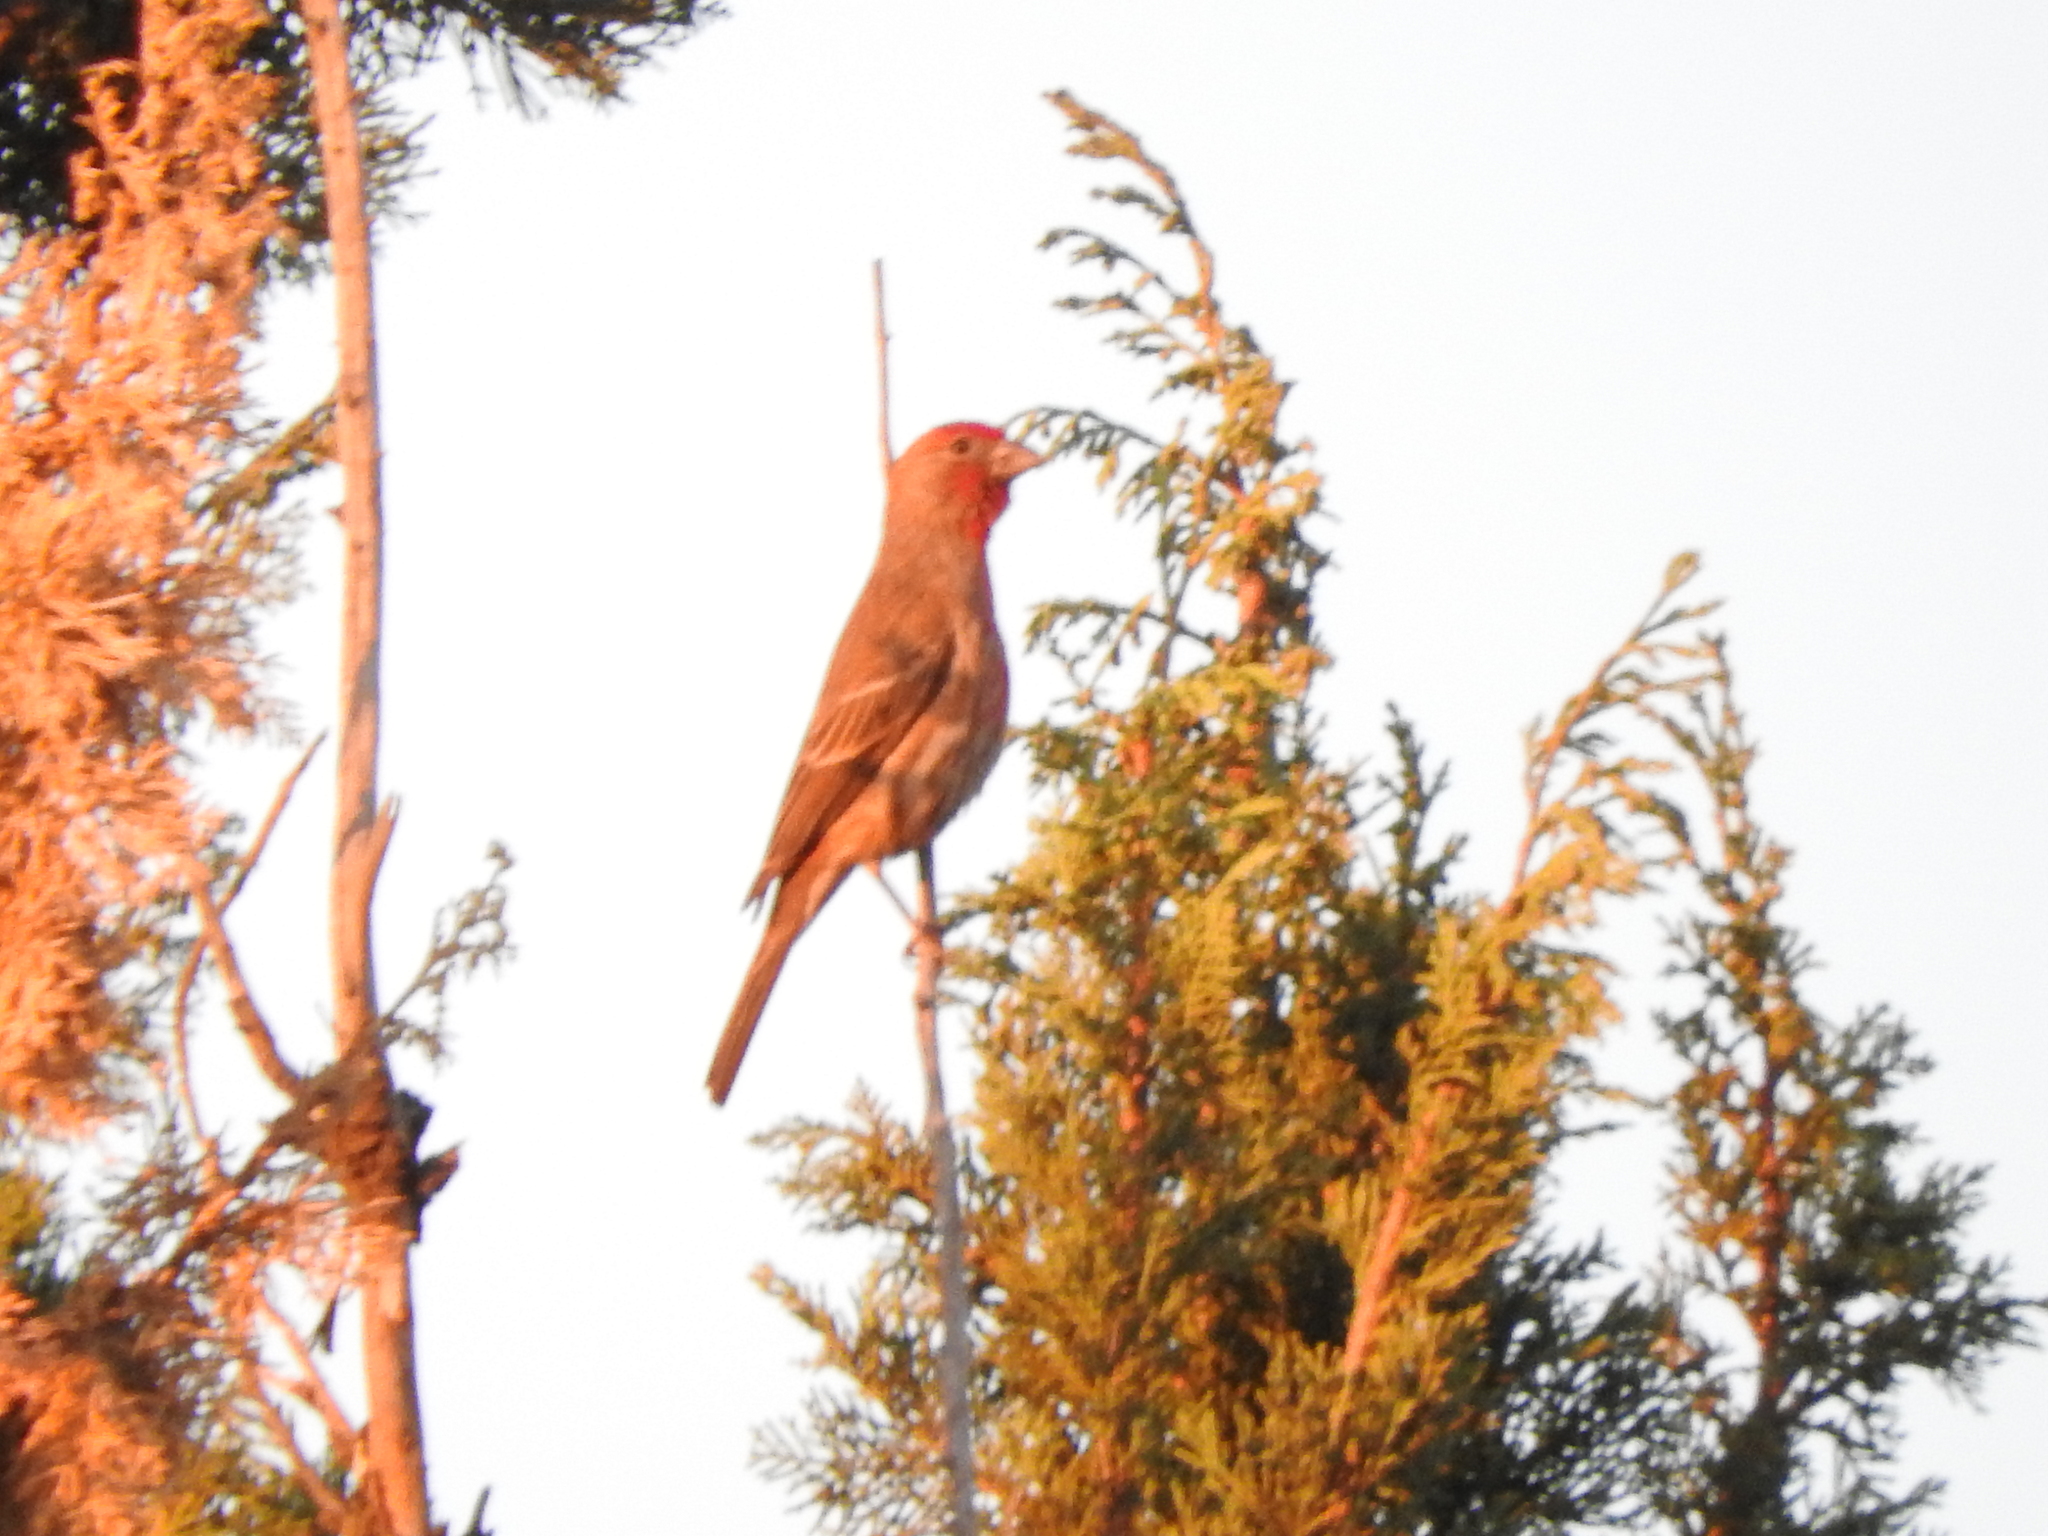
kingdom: Animalia
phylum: Chordata
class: Aves
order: Passeriformes
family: Fringillidae
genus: Haemorhous
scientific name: Haemorhous mexicanus
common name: House finch
